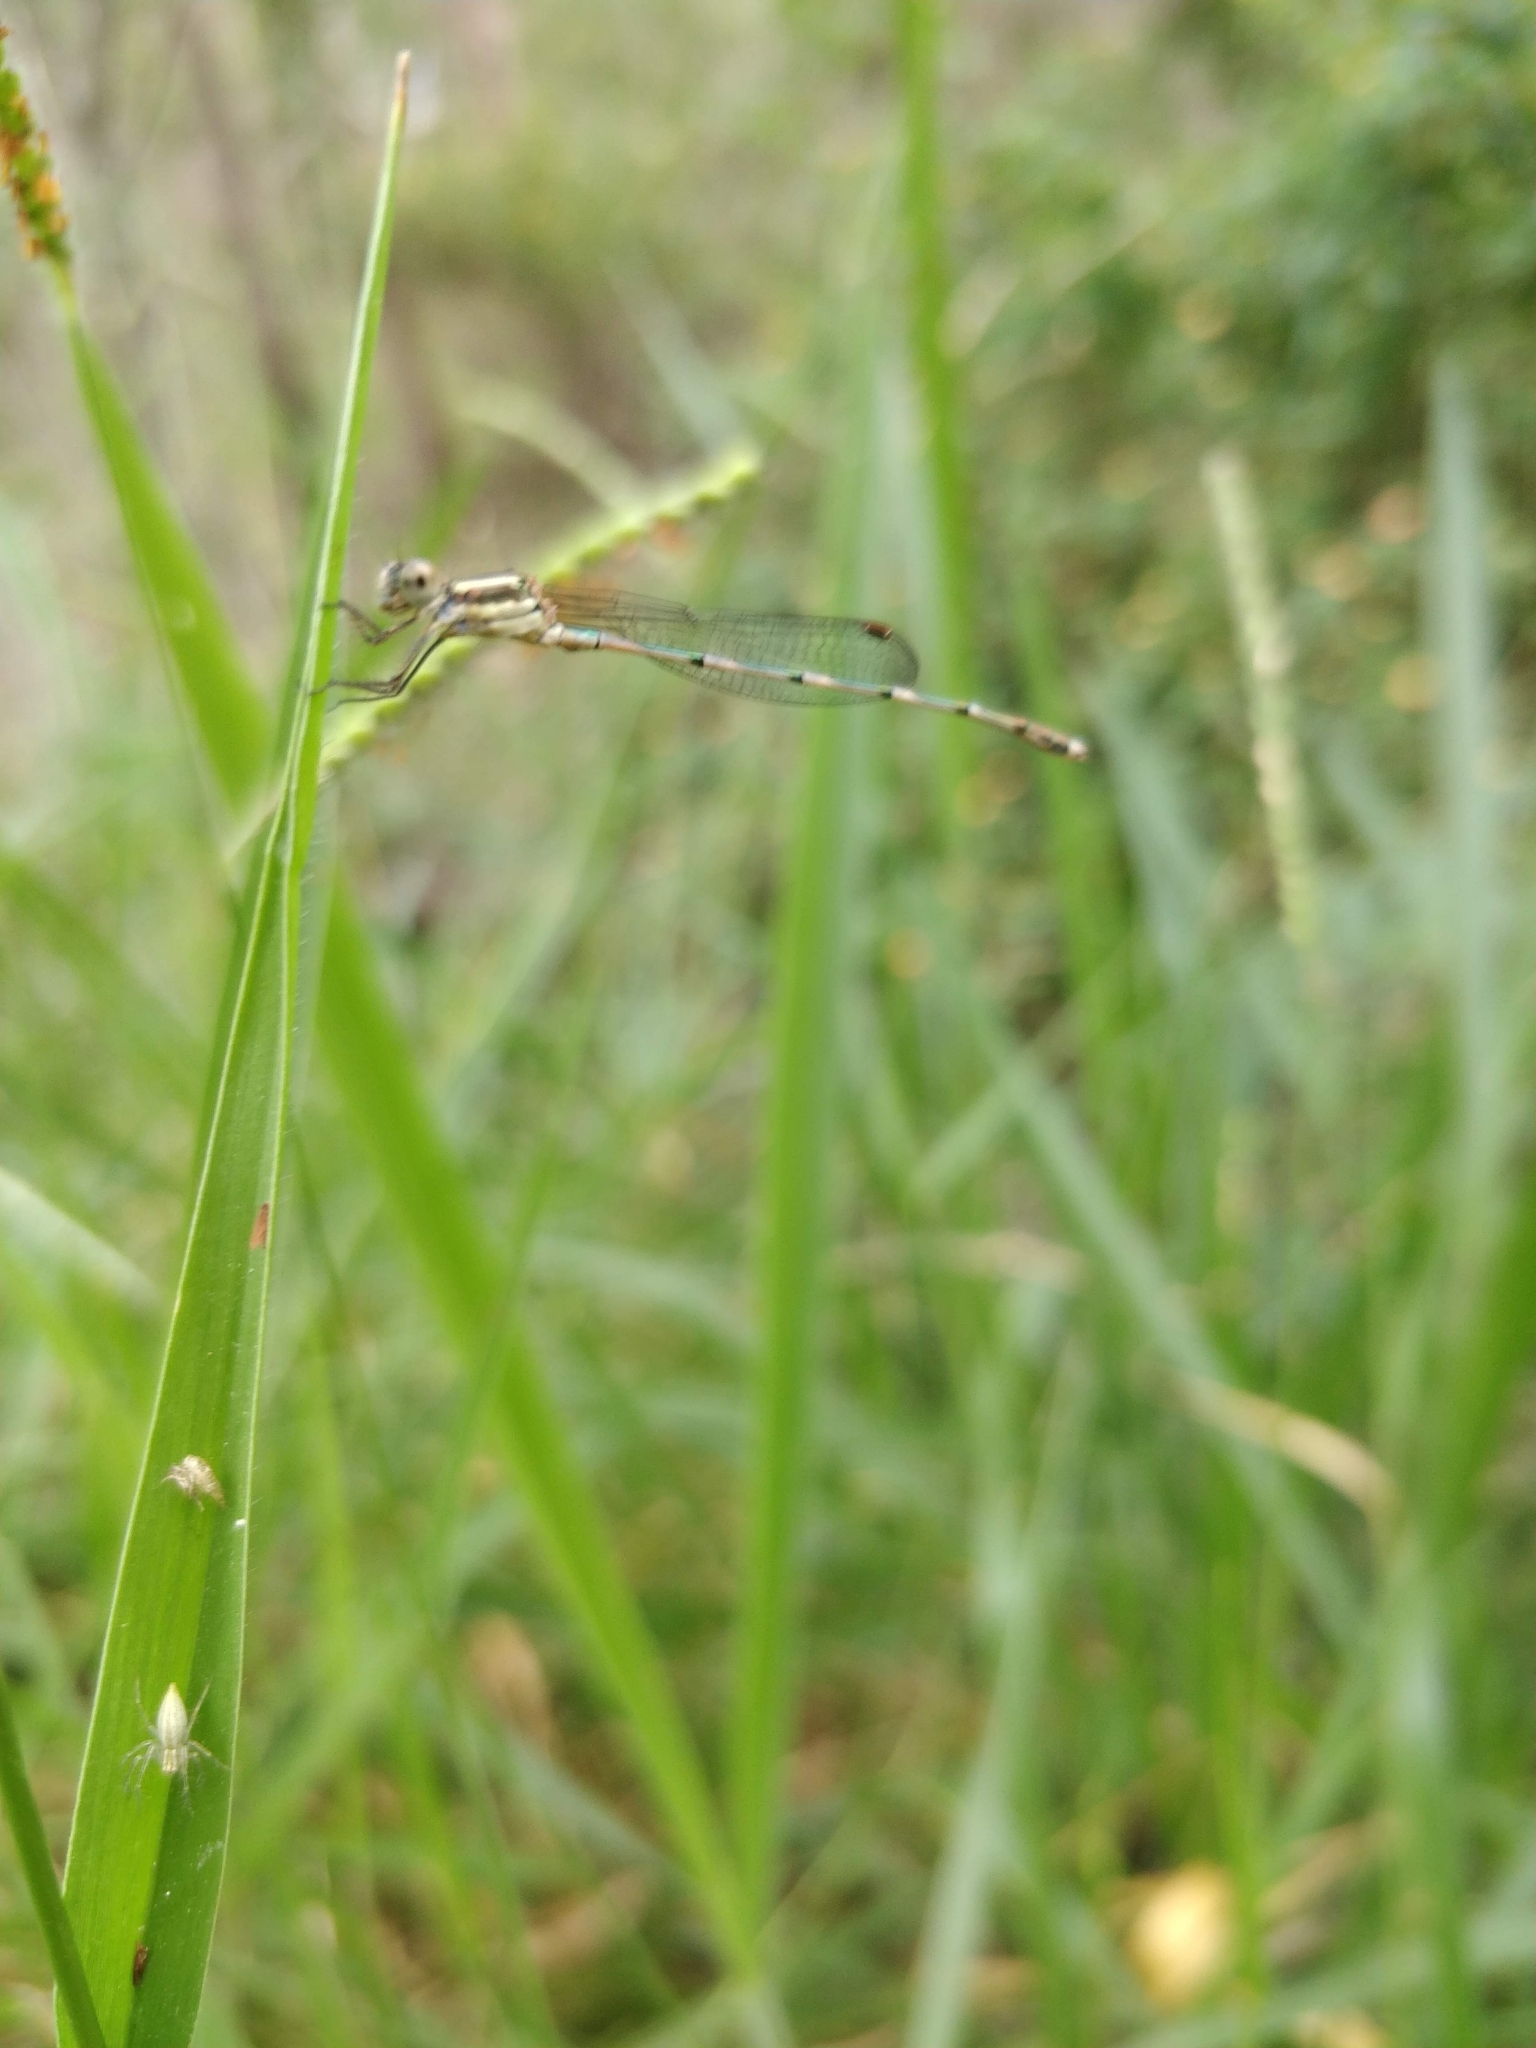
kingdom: Animalia
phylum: Arthropoda
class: Insecta
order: Odonata
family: Lestidae
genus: Austrolestes
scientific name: Austrolestes leda
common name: Wandering ringtail
